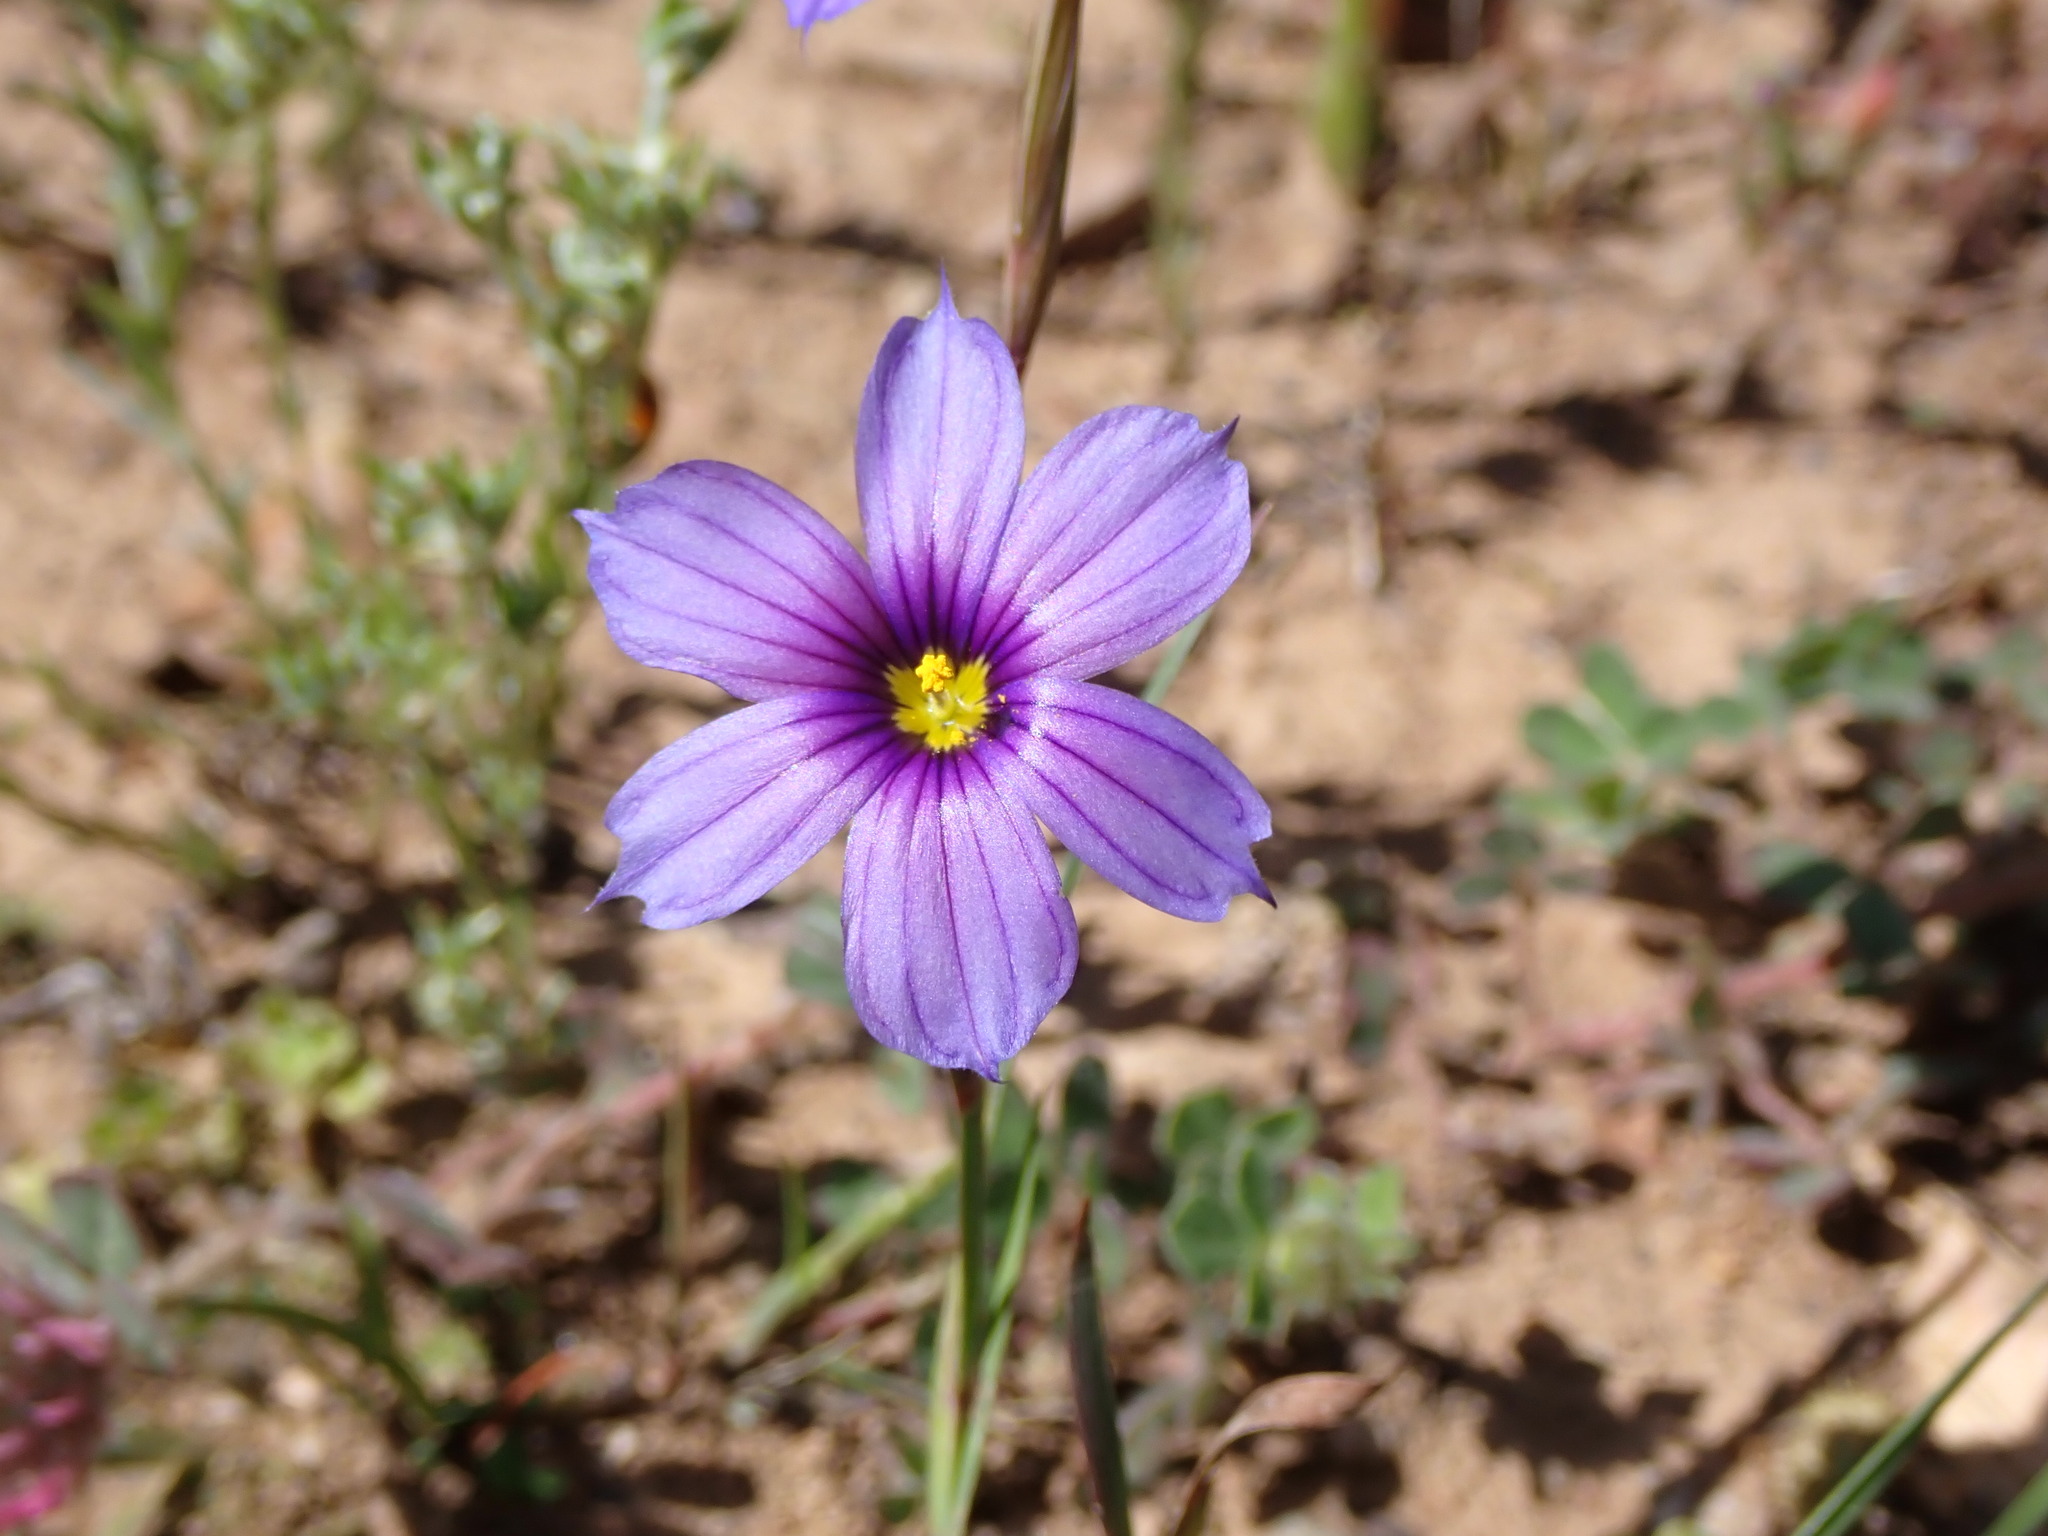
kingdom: Plantae
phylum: Tracheophyta
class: Liliopsida
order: Asparagales
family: Iridaceae
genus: Sisyrinchium
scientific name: Sisyrinchium bellum
